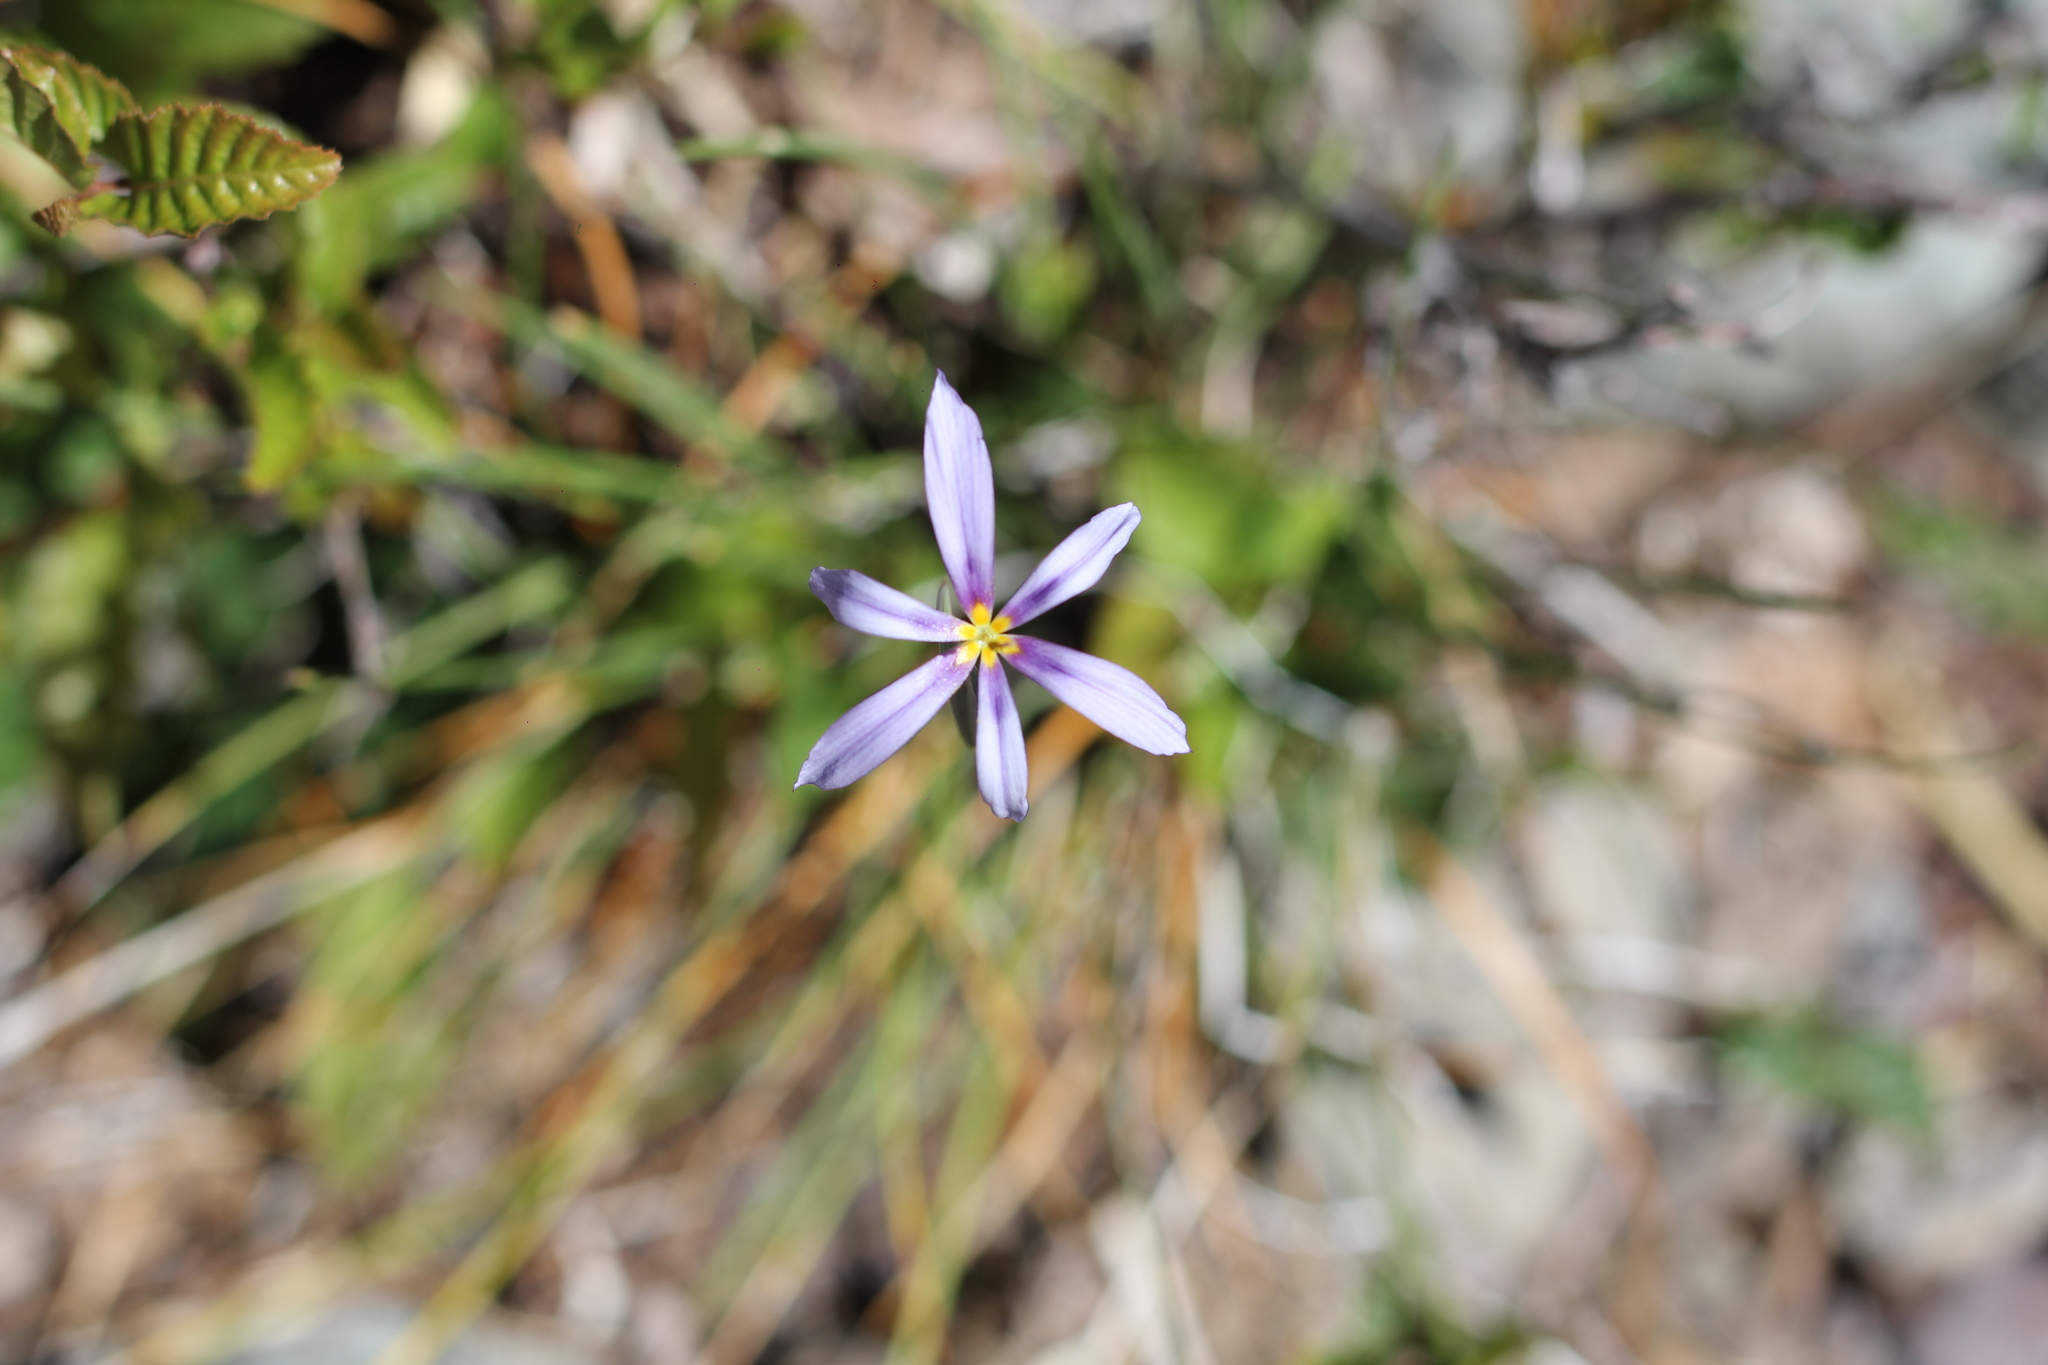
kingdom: Plantae
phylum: Tracheophyta
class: Liliopsida
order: Asparagales
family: Iridaceae
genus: Solenomelus
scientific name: Solenomelus segethi
